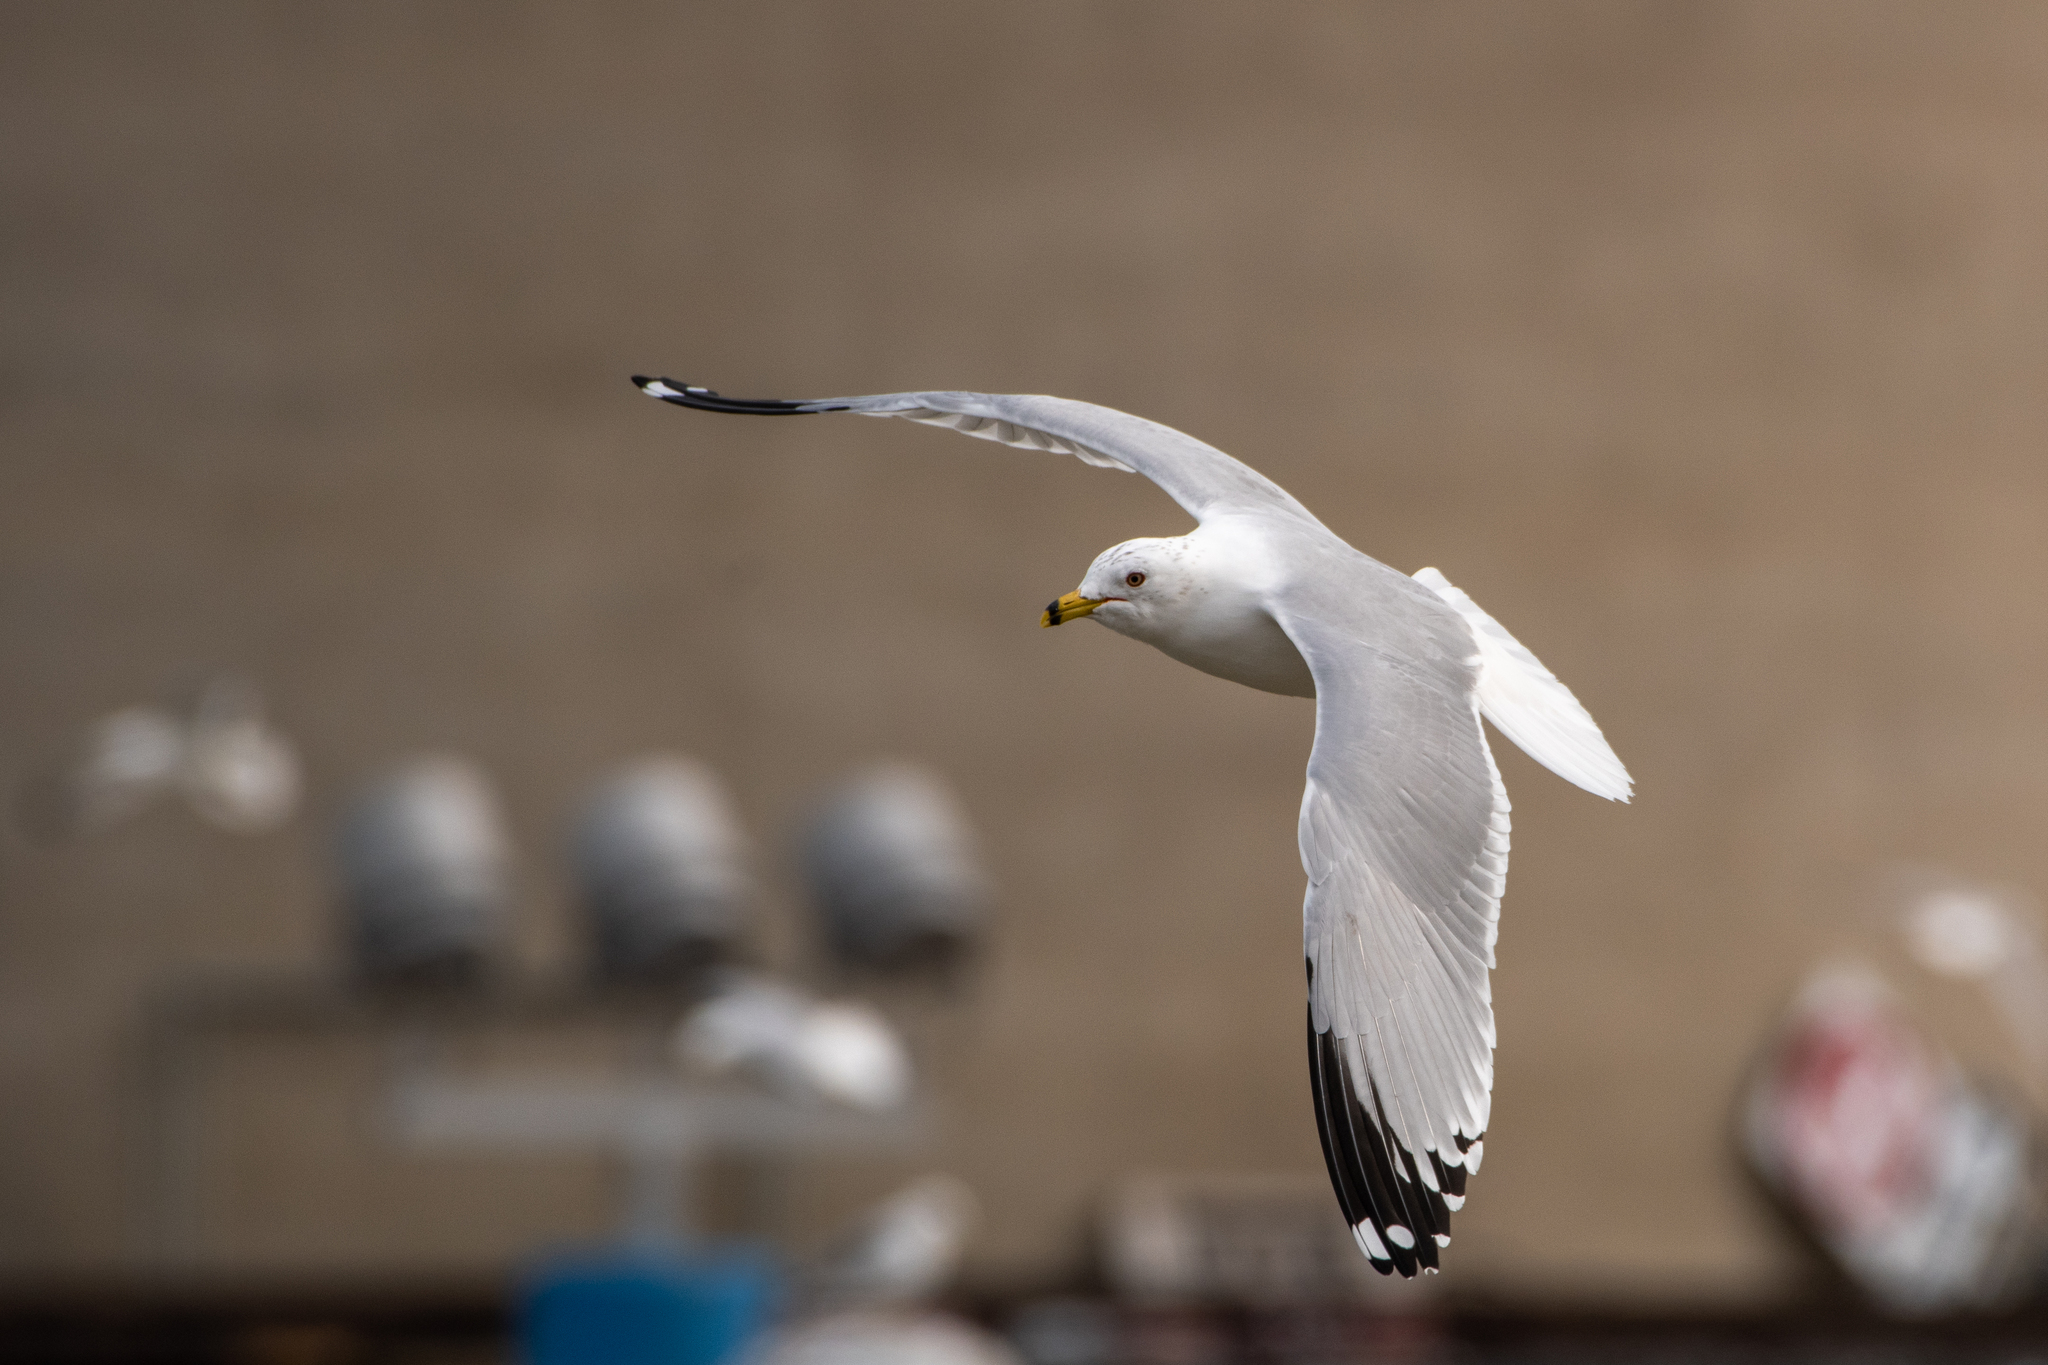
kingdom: Animalia
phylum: Chordata
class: Aves
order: Charadriiformes
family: Laridae
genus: Larus
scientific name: Larus delawarensis
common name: Ring-billed gull
